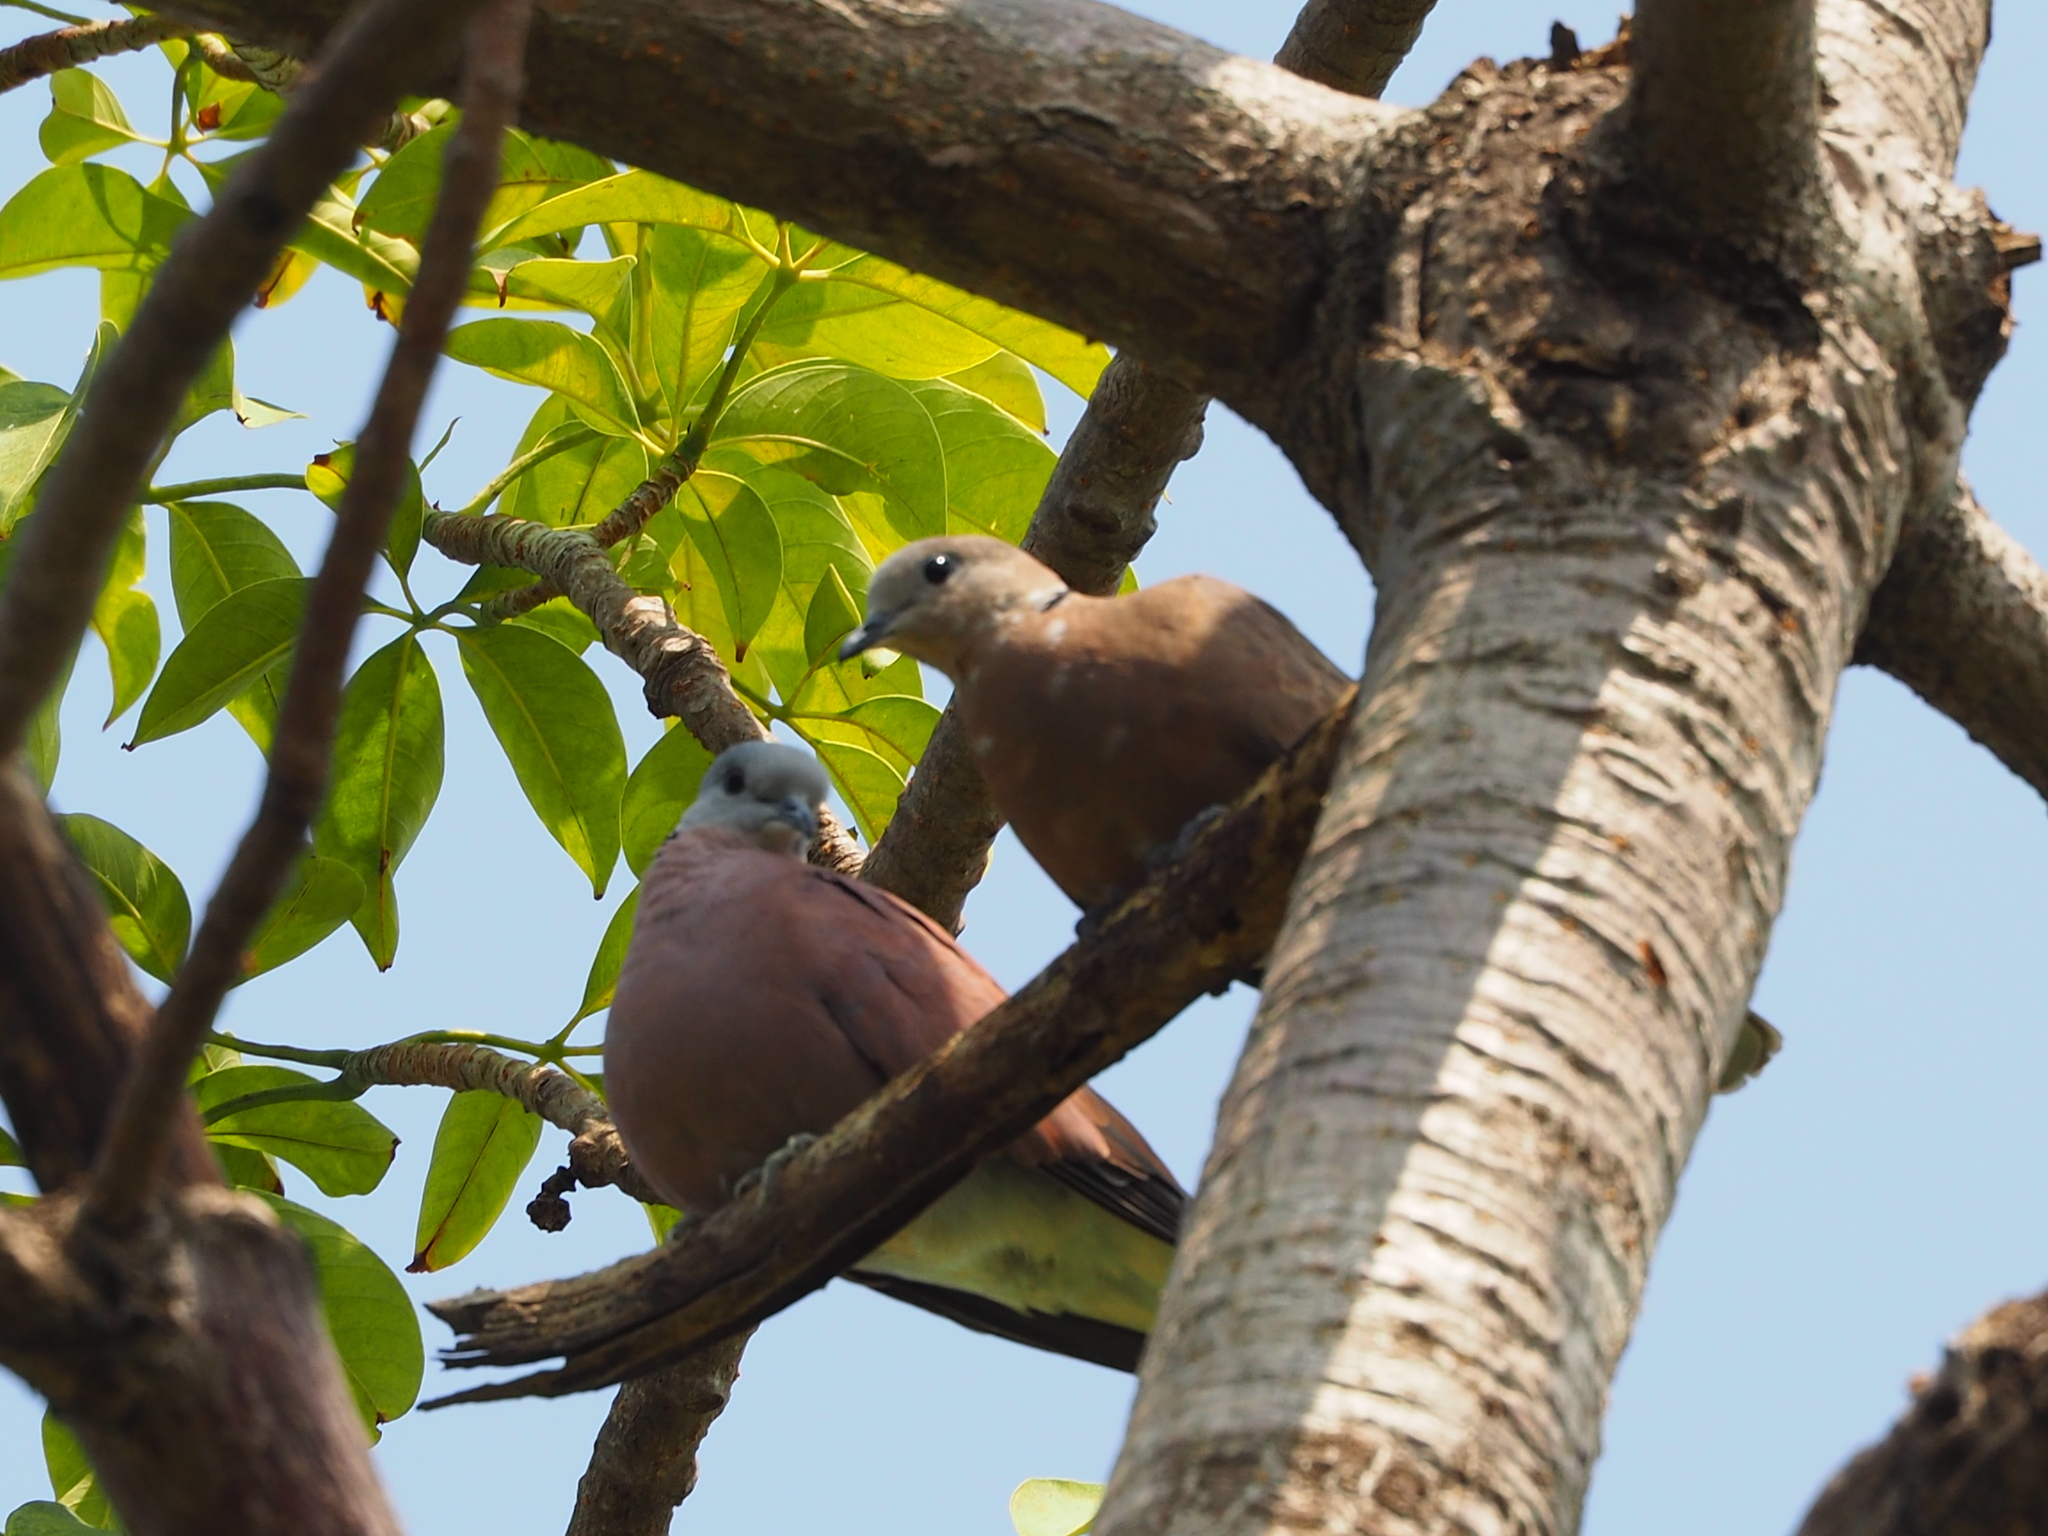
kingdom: Animalia
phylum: Chordata
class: Aves
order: Columbiformes
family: Columbidae
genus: Streptopelia
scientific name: Streptopelia tranquebarica
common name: Red turtle dove
